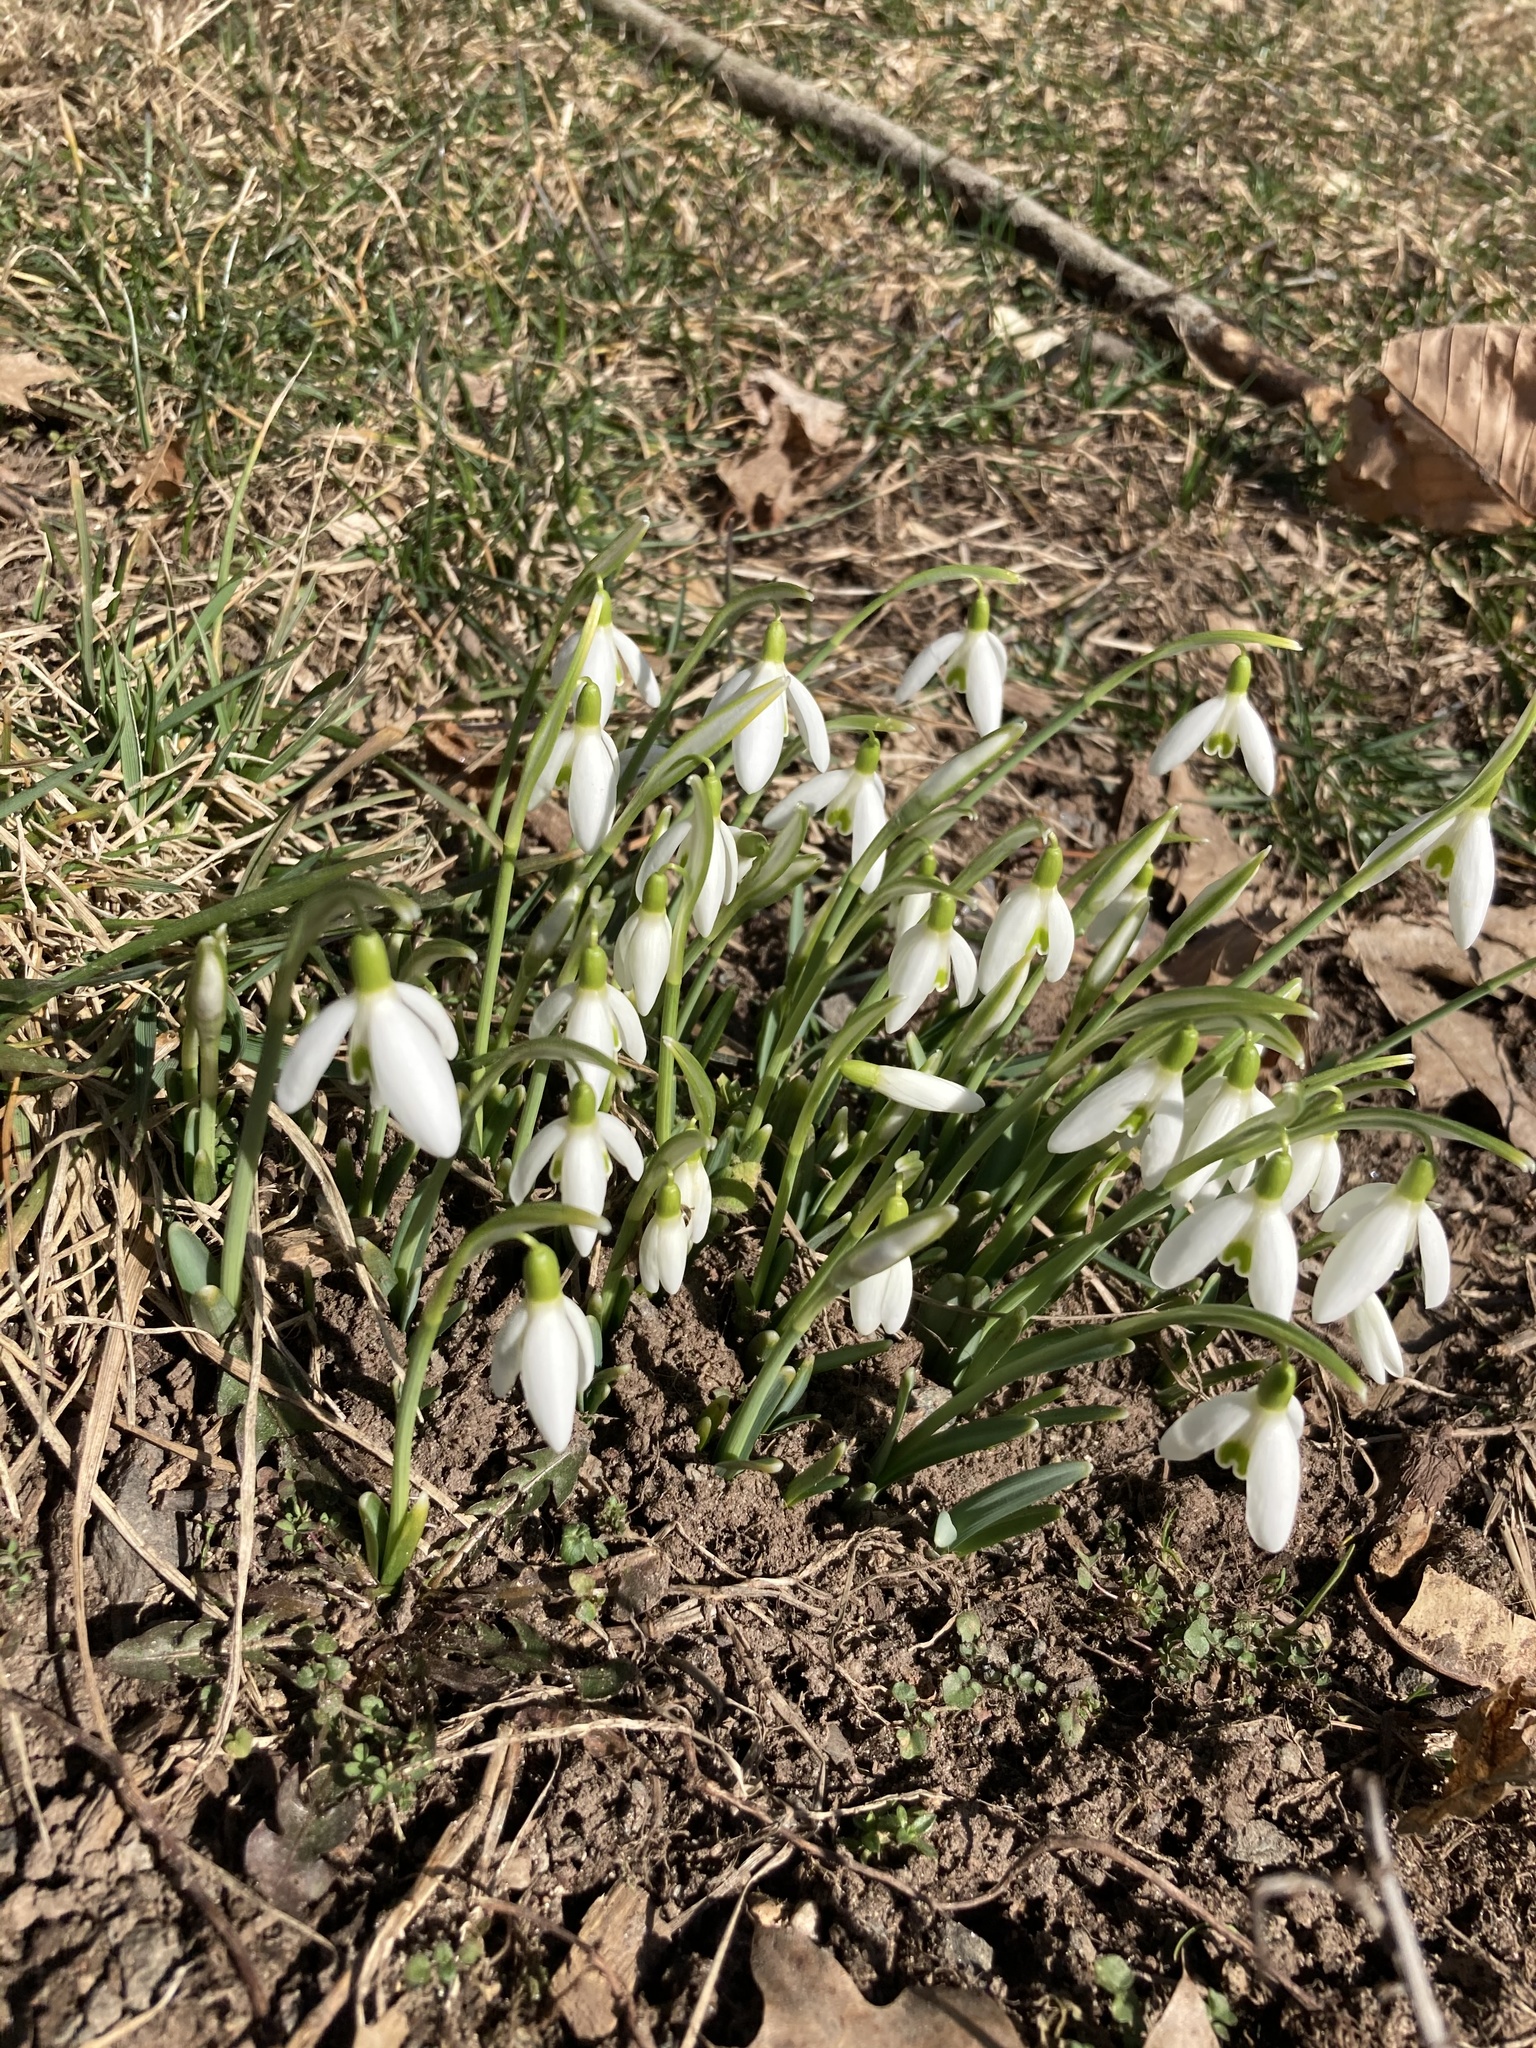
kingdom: Plantae
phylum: Tracheophyta
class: Liliopsida
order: Asparagales
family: Amaryllidaceae
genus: Galanthus
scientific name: Galanthus nivalis
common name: Snowdrop
